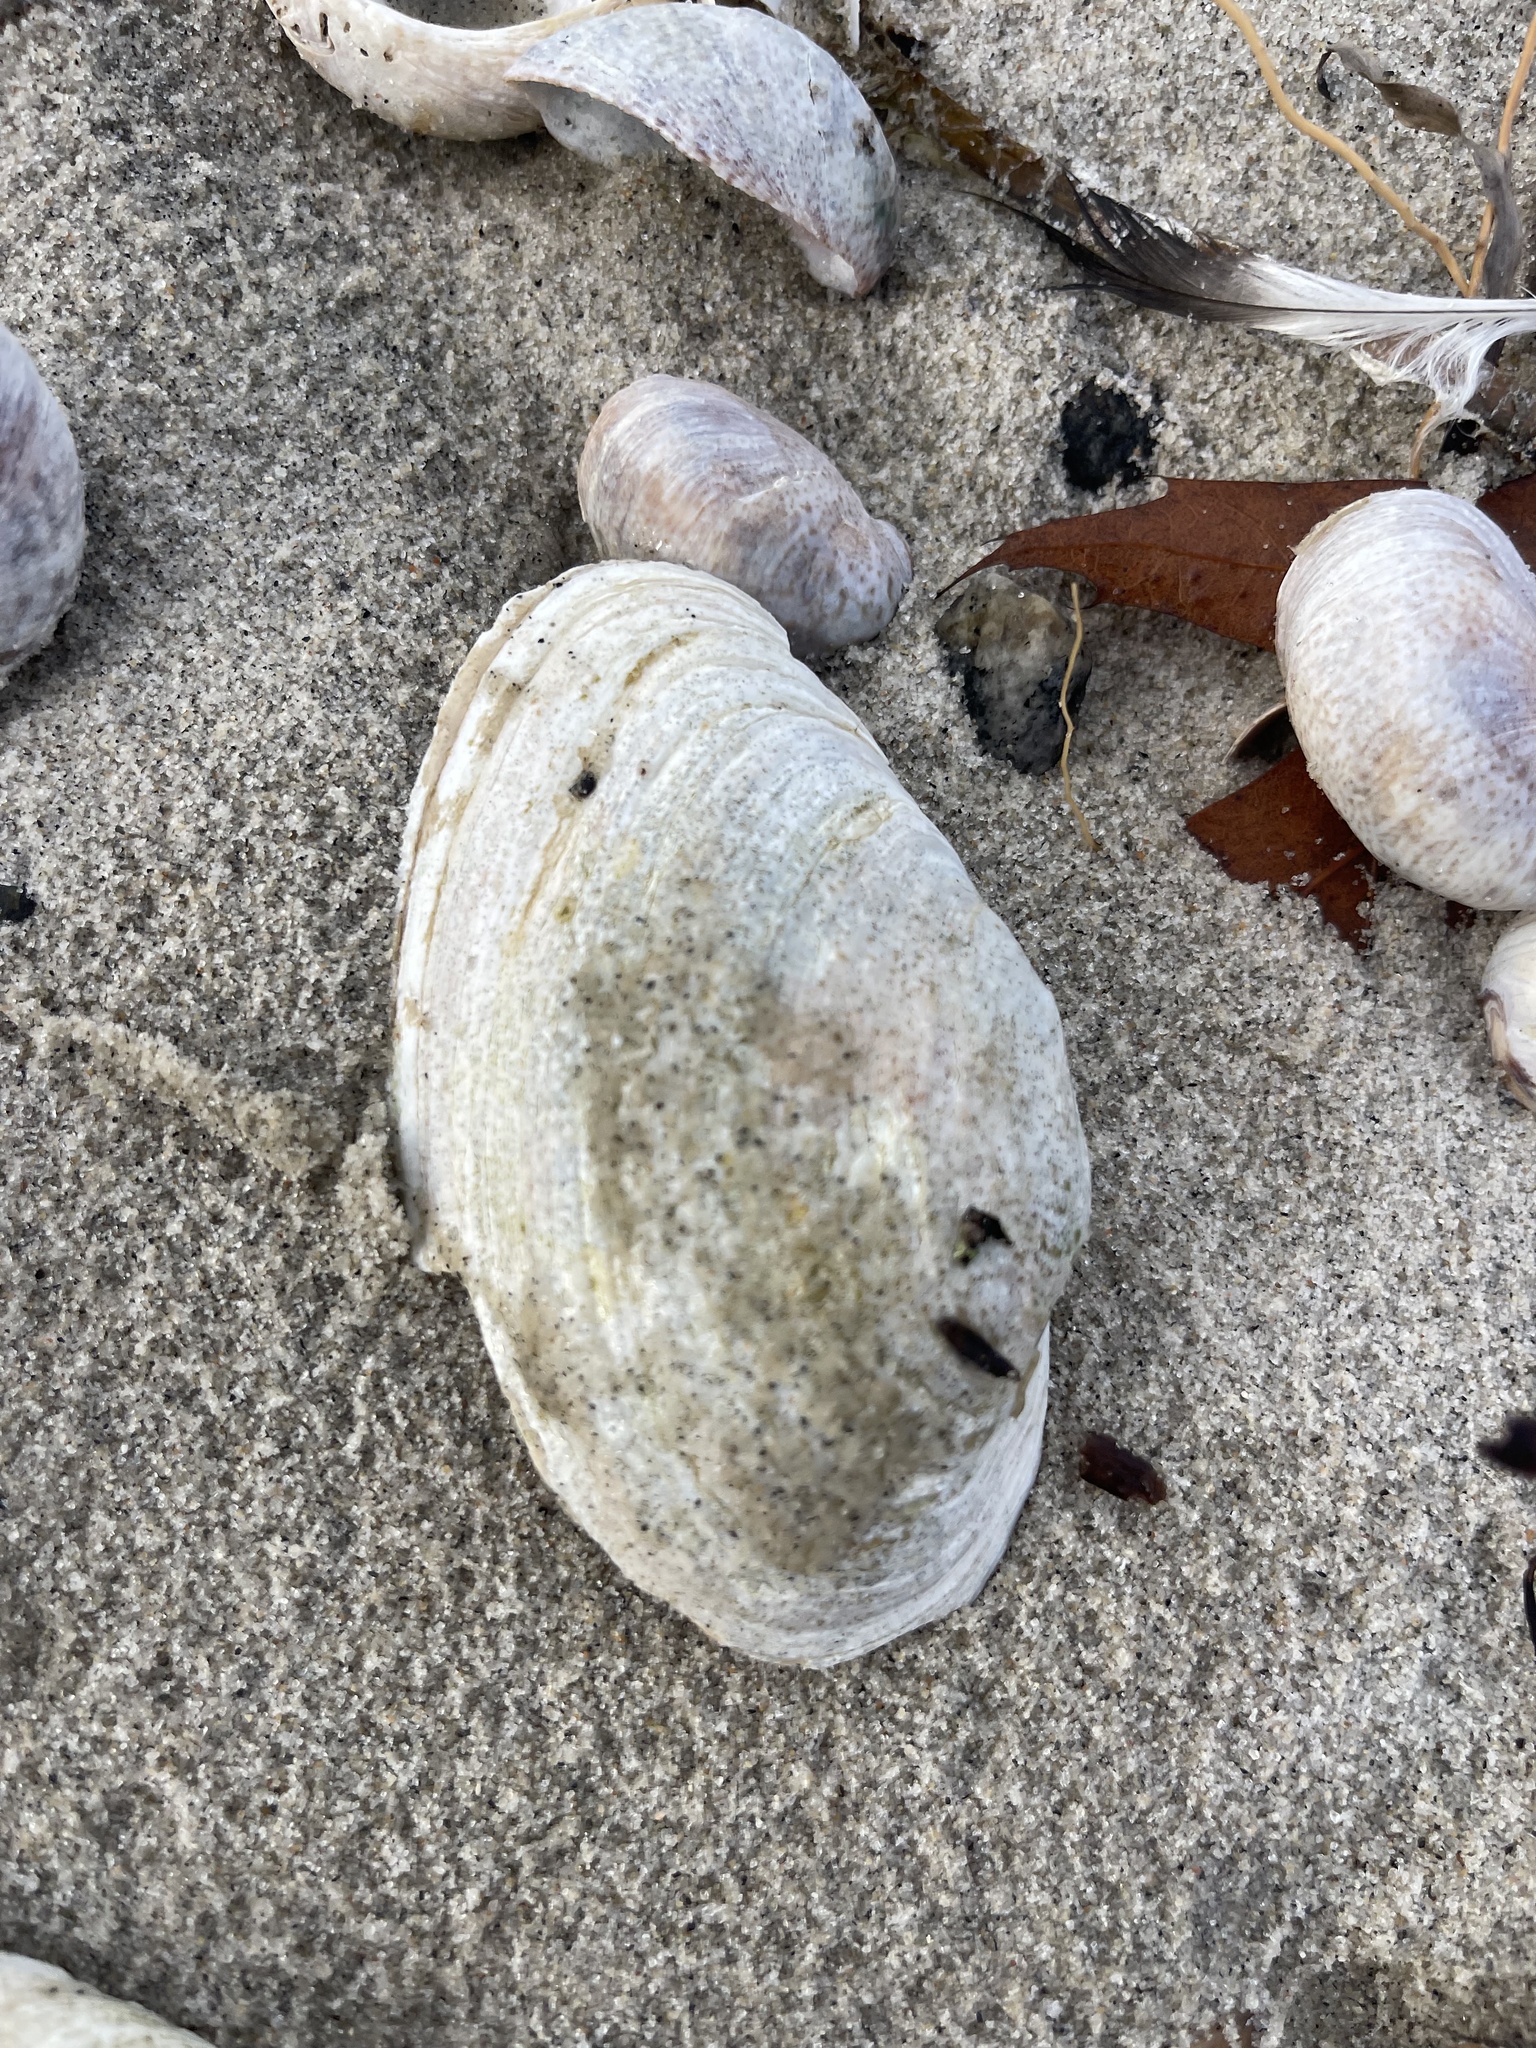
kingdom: Animalia
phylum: Mollusca
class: Bivalvia
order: Myida
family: Myidae
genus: Mya
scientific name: Mya arenaria
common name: Soft-shelled clam
